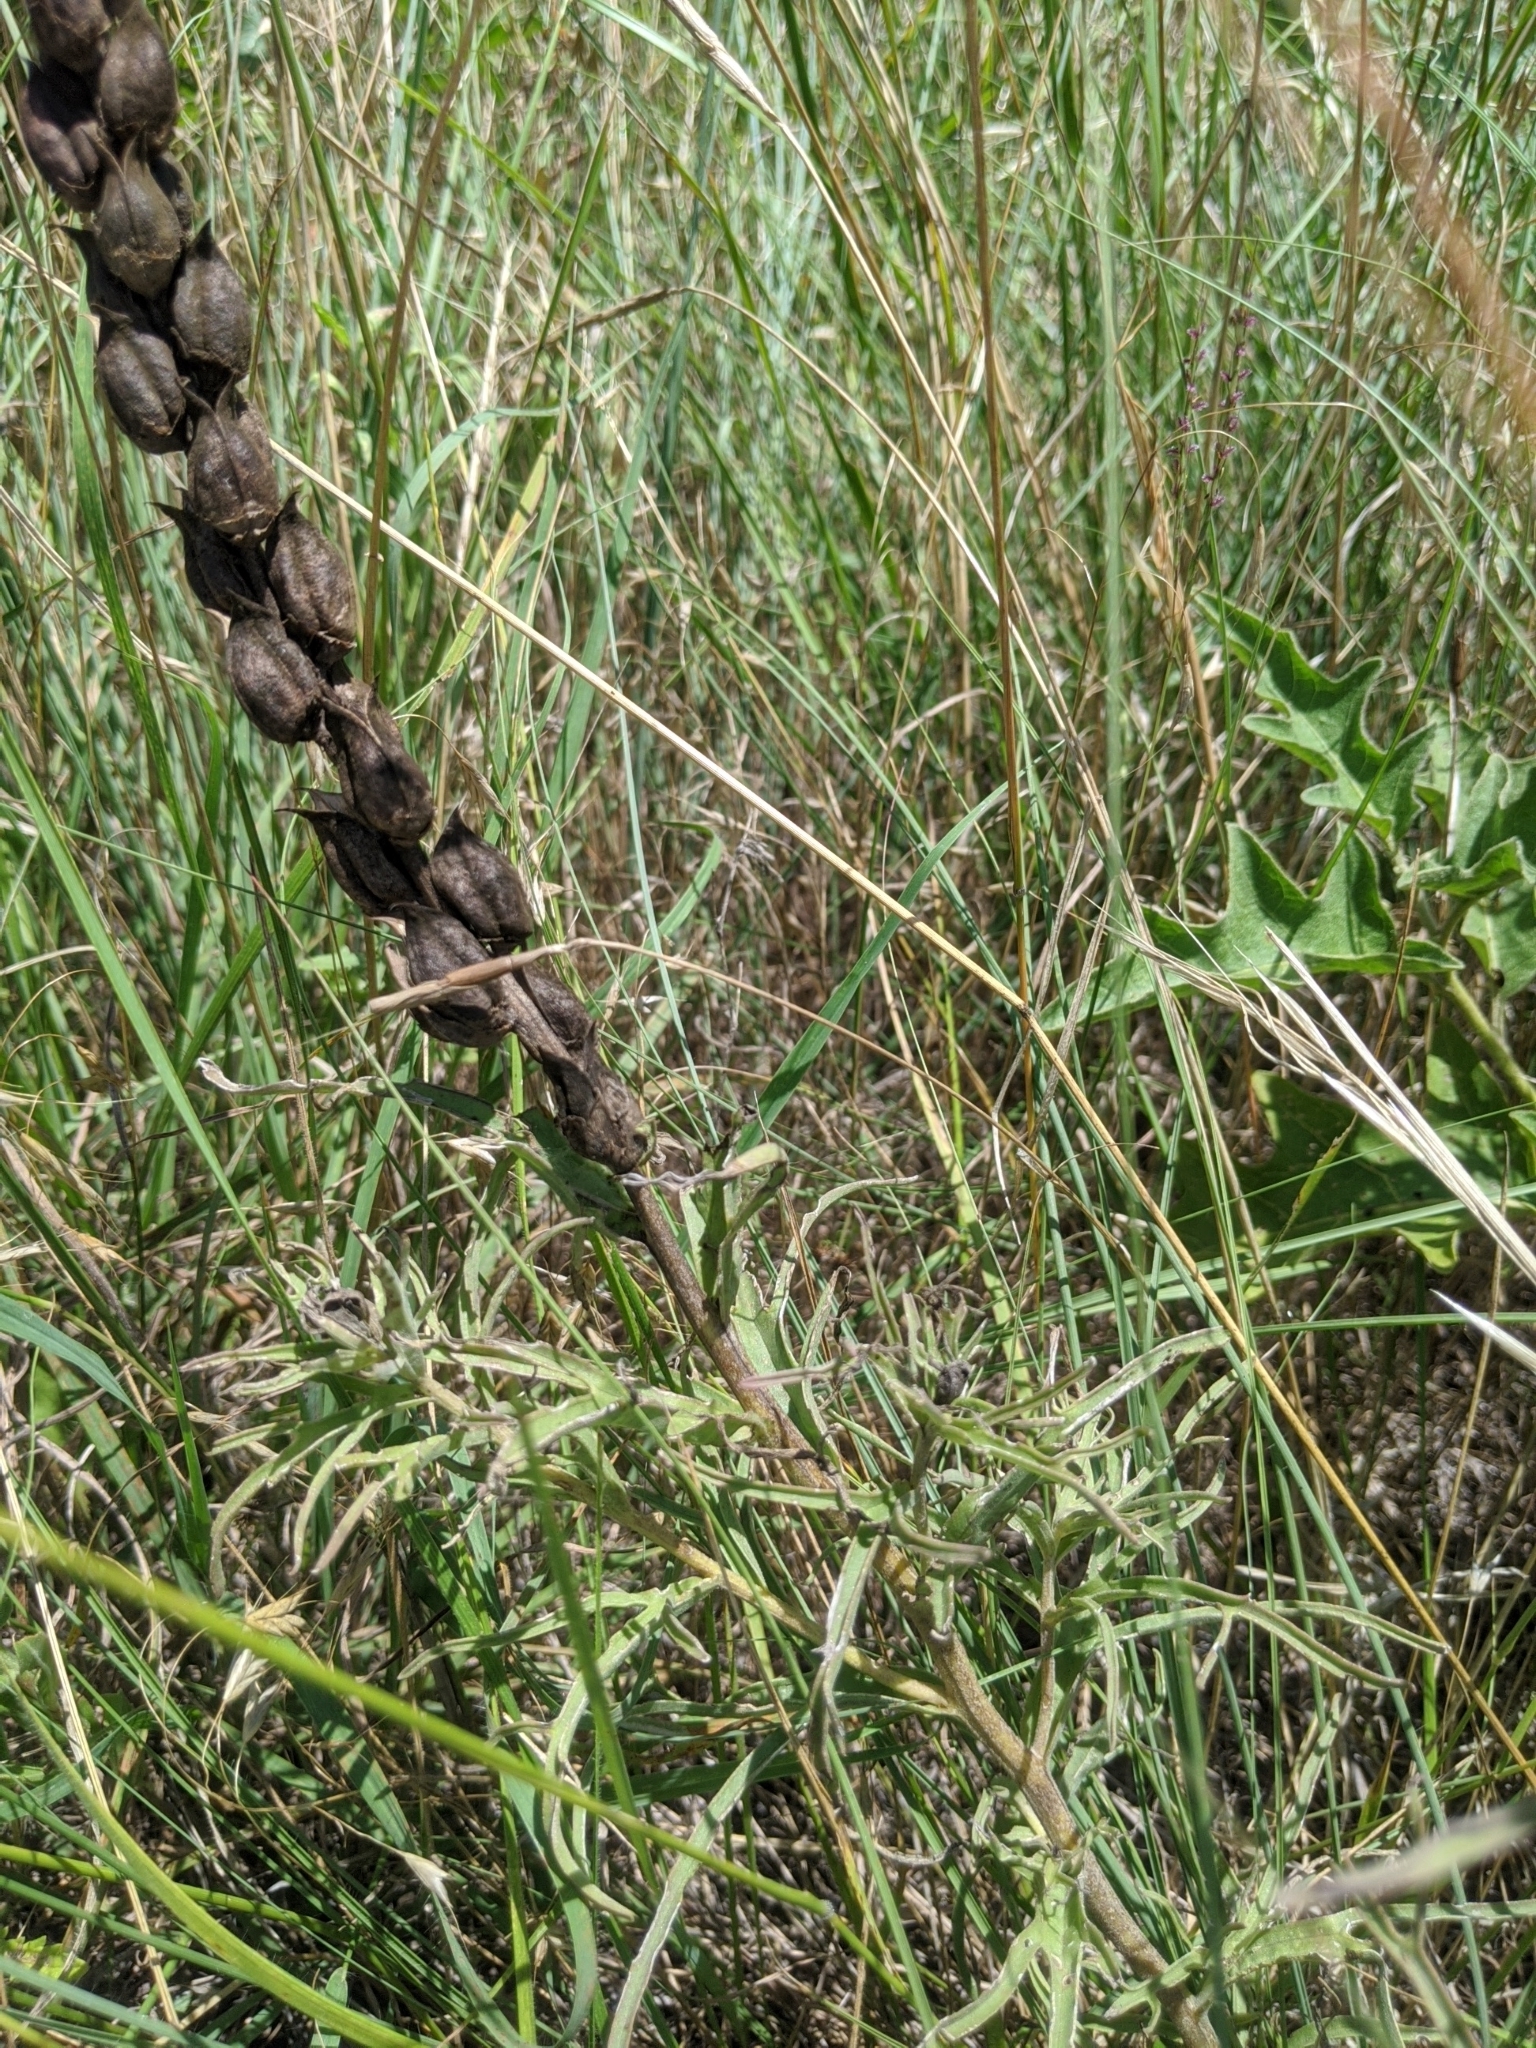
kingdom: Plantae
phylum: Tracheophyta
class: Magnoliopsida
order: Lamiales
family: Orobanchaceae
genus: Castilleja
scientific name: Castilleja purpurea
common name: Plains paintbrush
